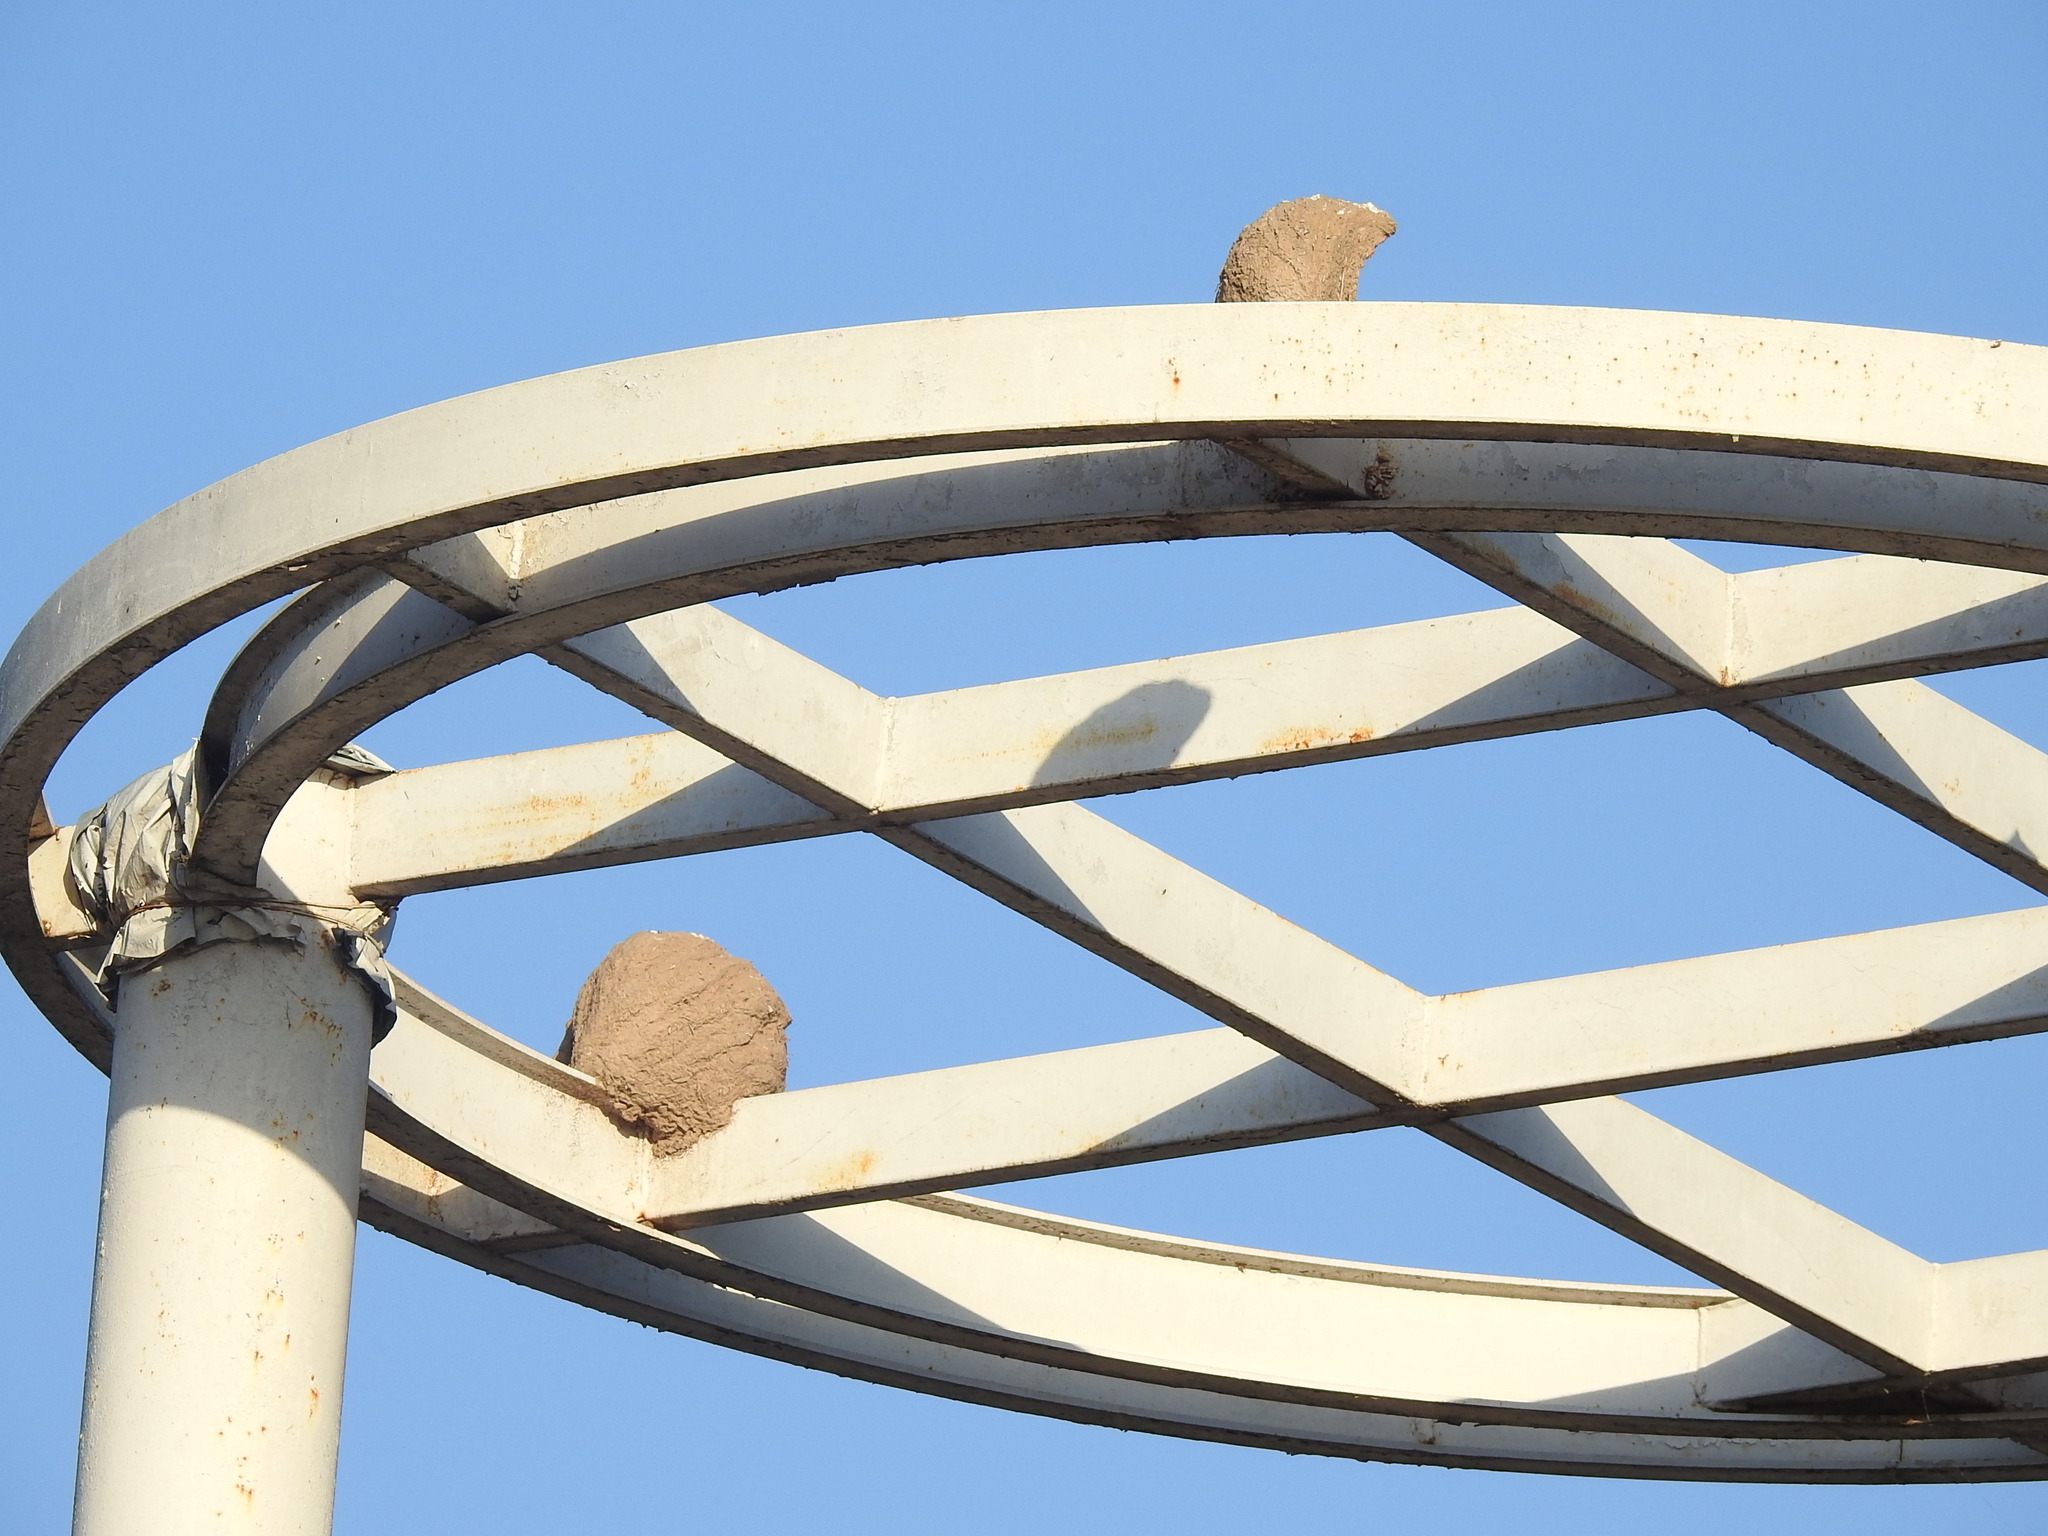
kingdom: Animalia
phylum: Chordata
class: Aves
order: Passeriformes
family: Furnariidae
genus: Furnarius
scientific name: Furnarius rufus
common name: Rufous hornero
